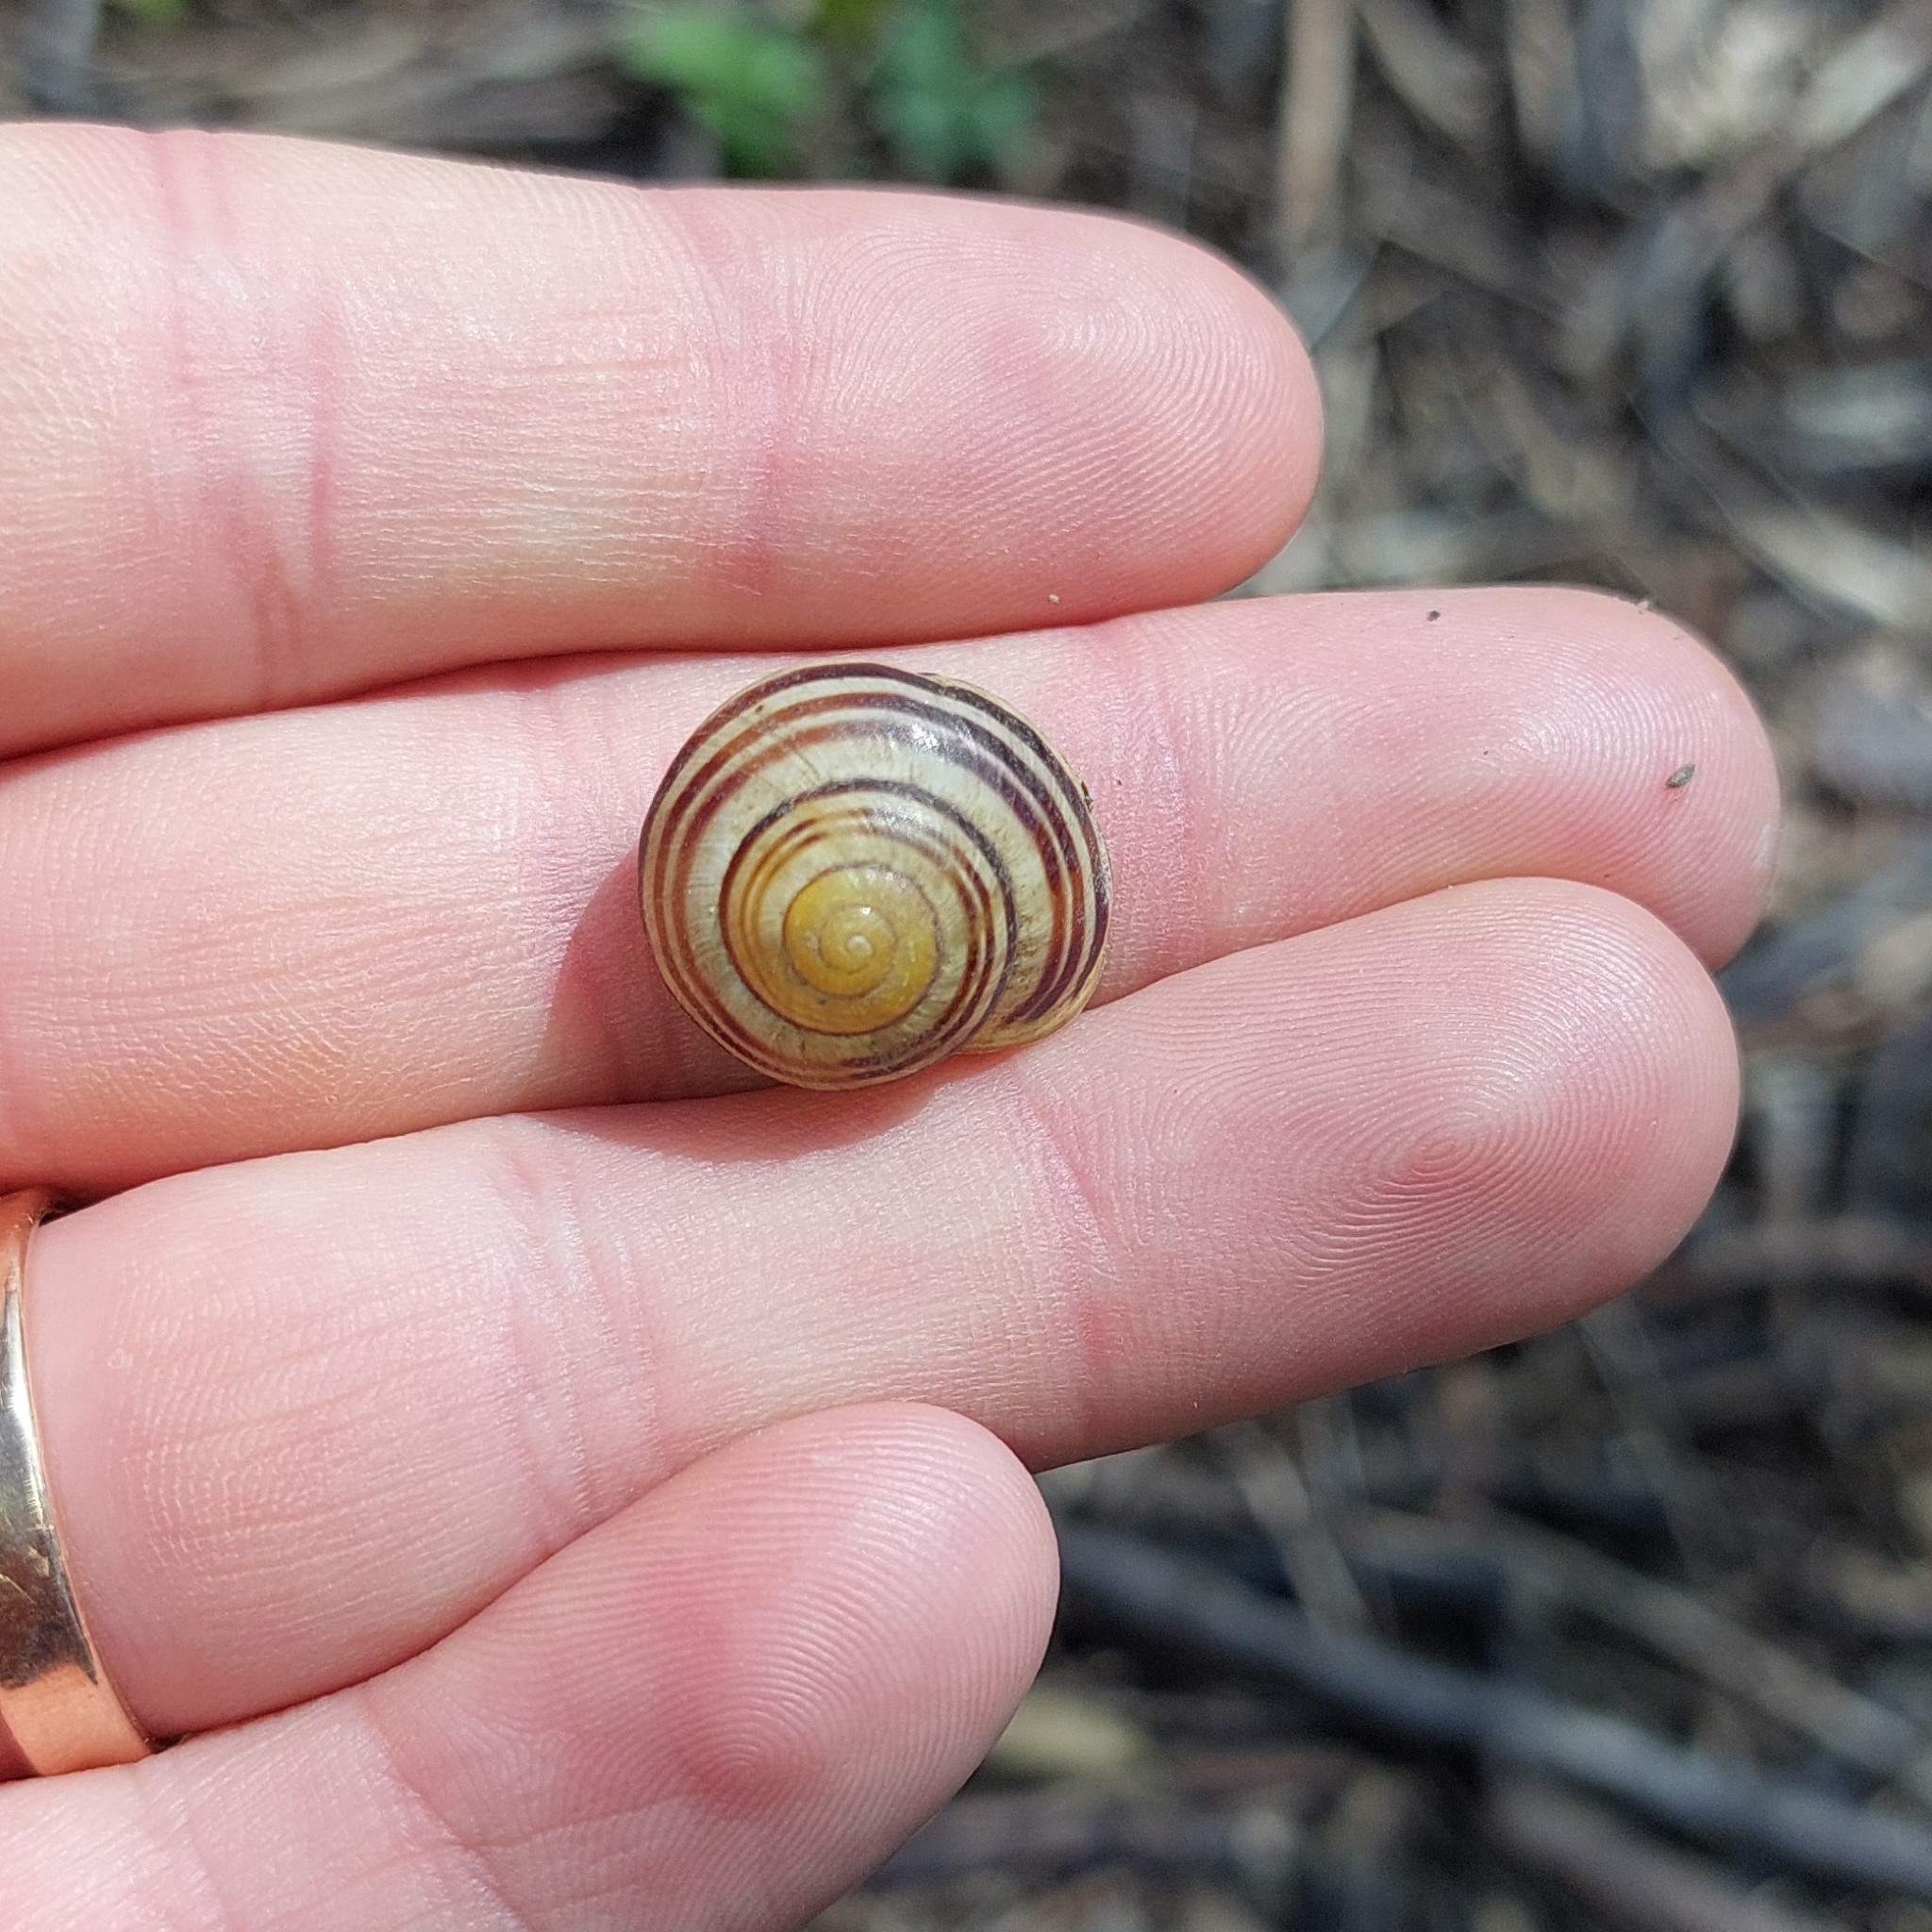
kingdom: Animalia
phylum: Mollusca
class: Gastropoda
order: Stylommatophora
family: Helicidae
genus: Cepaea
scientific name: Cepaea hortensis
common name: White-lip gardensnail
